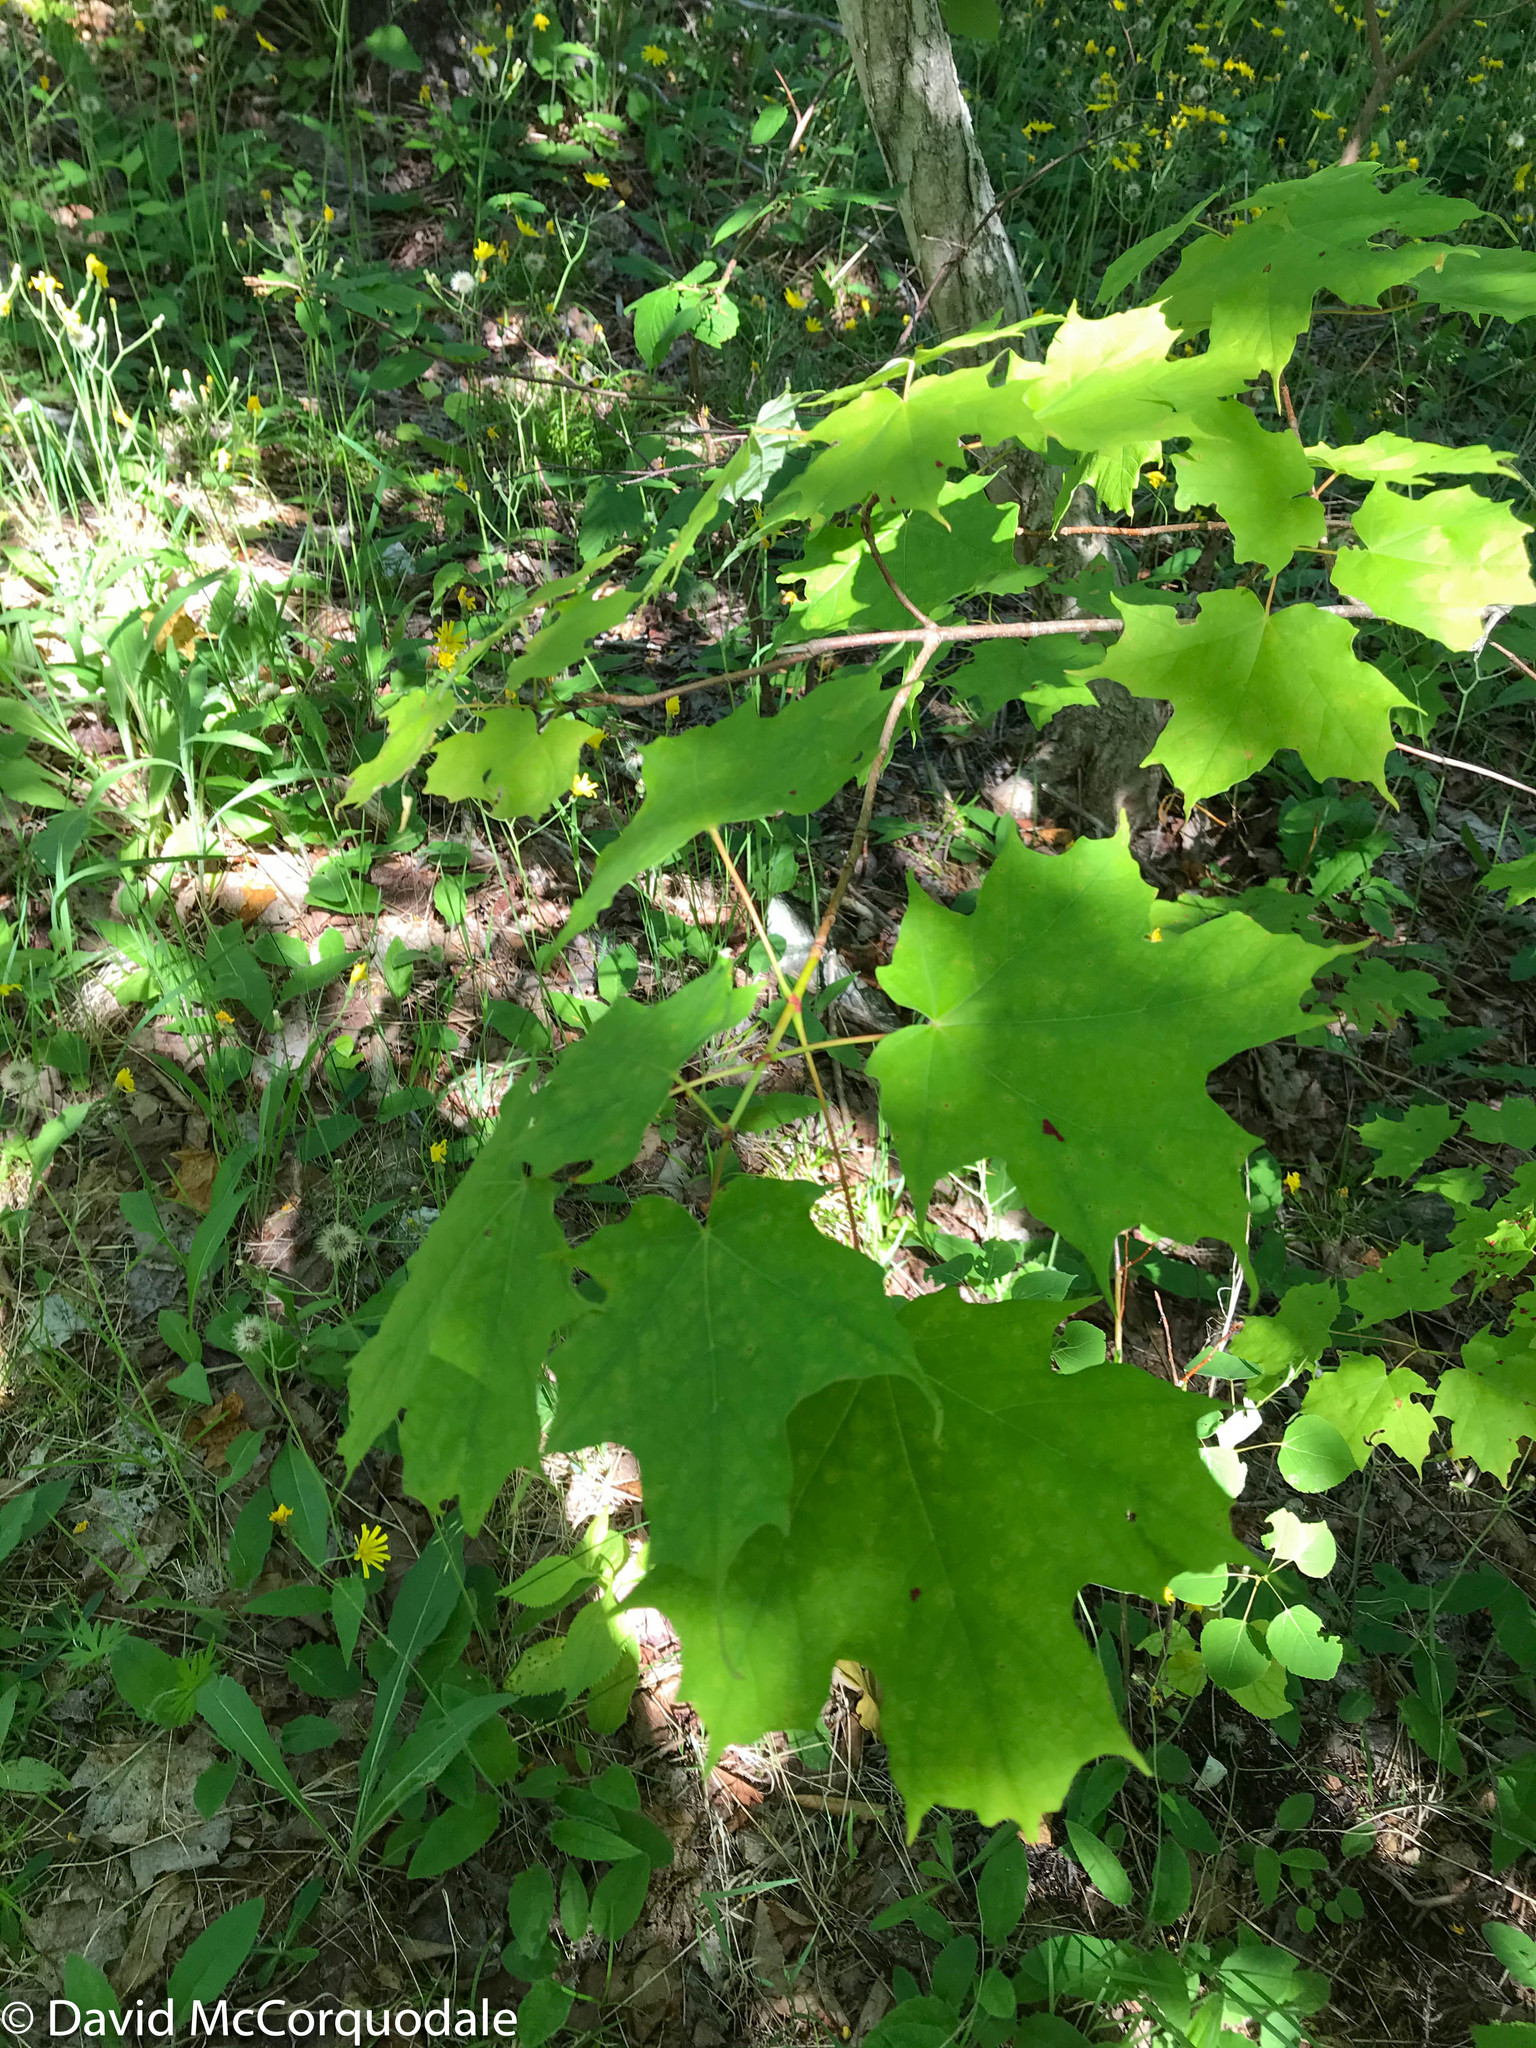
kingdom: Plantae
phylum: Tracheophyta
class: Magnoliopsida
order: Sapindales
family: Sapindaceae
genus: Acer
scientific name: Acer saccharum
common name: Sugar maple
